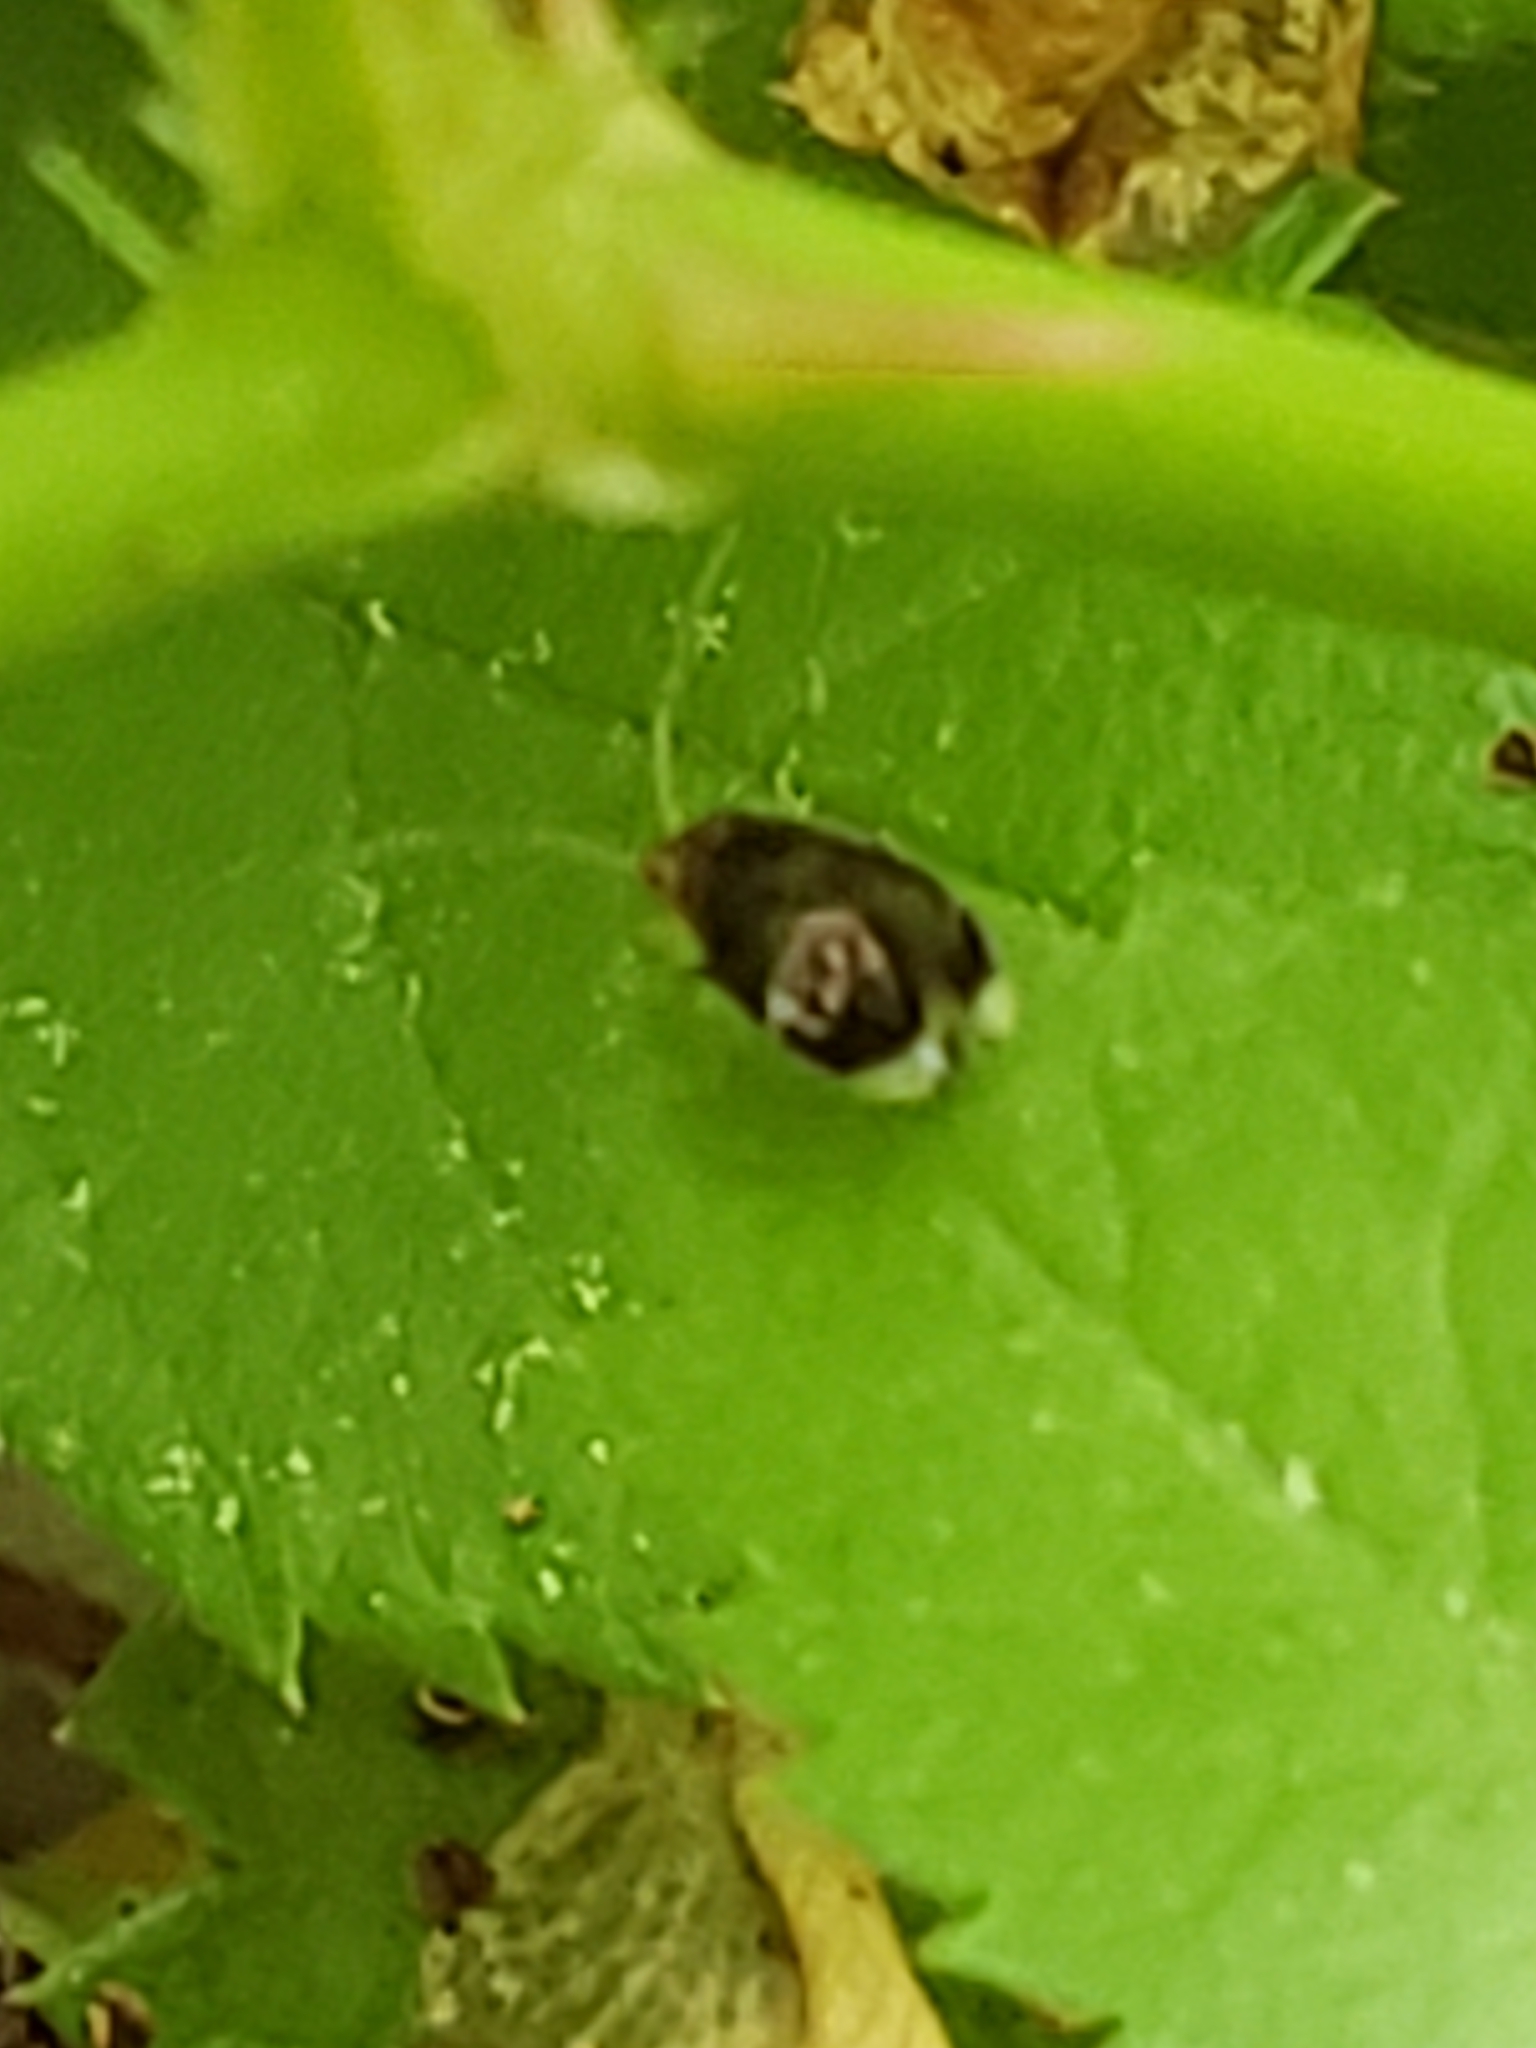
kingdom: Animalia
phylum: Arthropoda
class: Insecta
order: Psocodea
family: Amphipsocidae
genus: Polypsocus
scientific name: Polypsocus corruptus
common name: Corrupt barklouse
